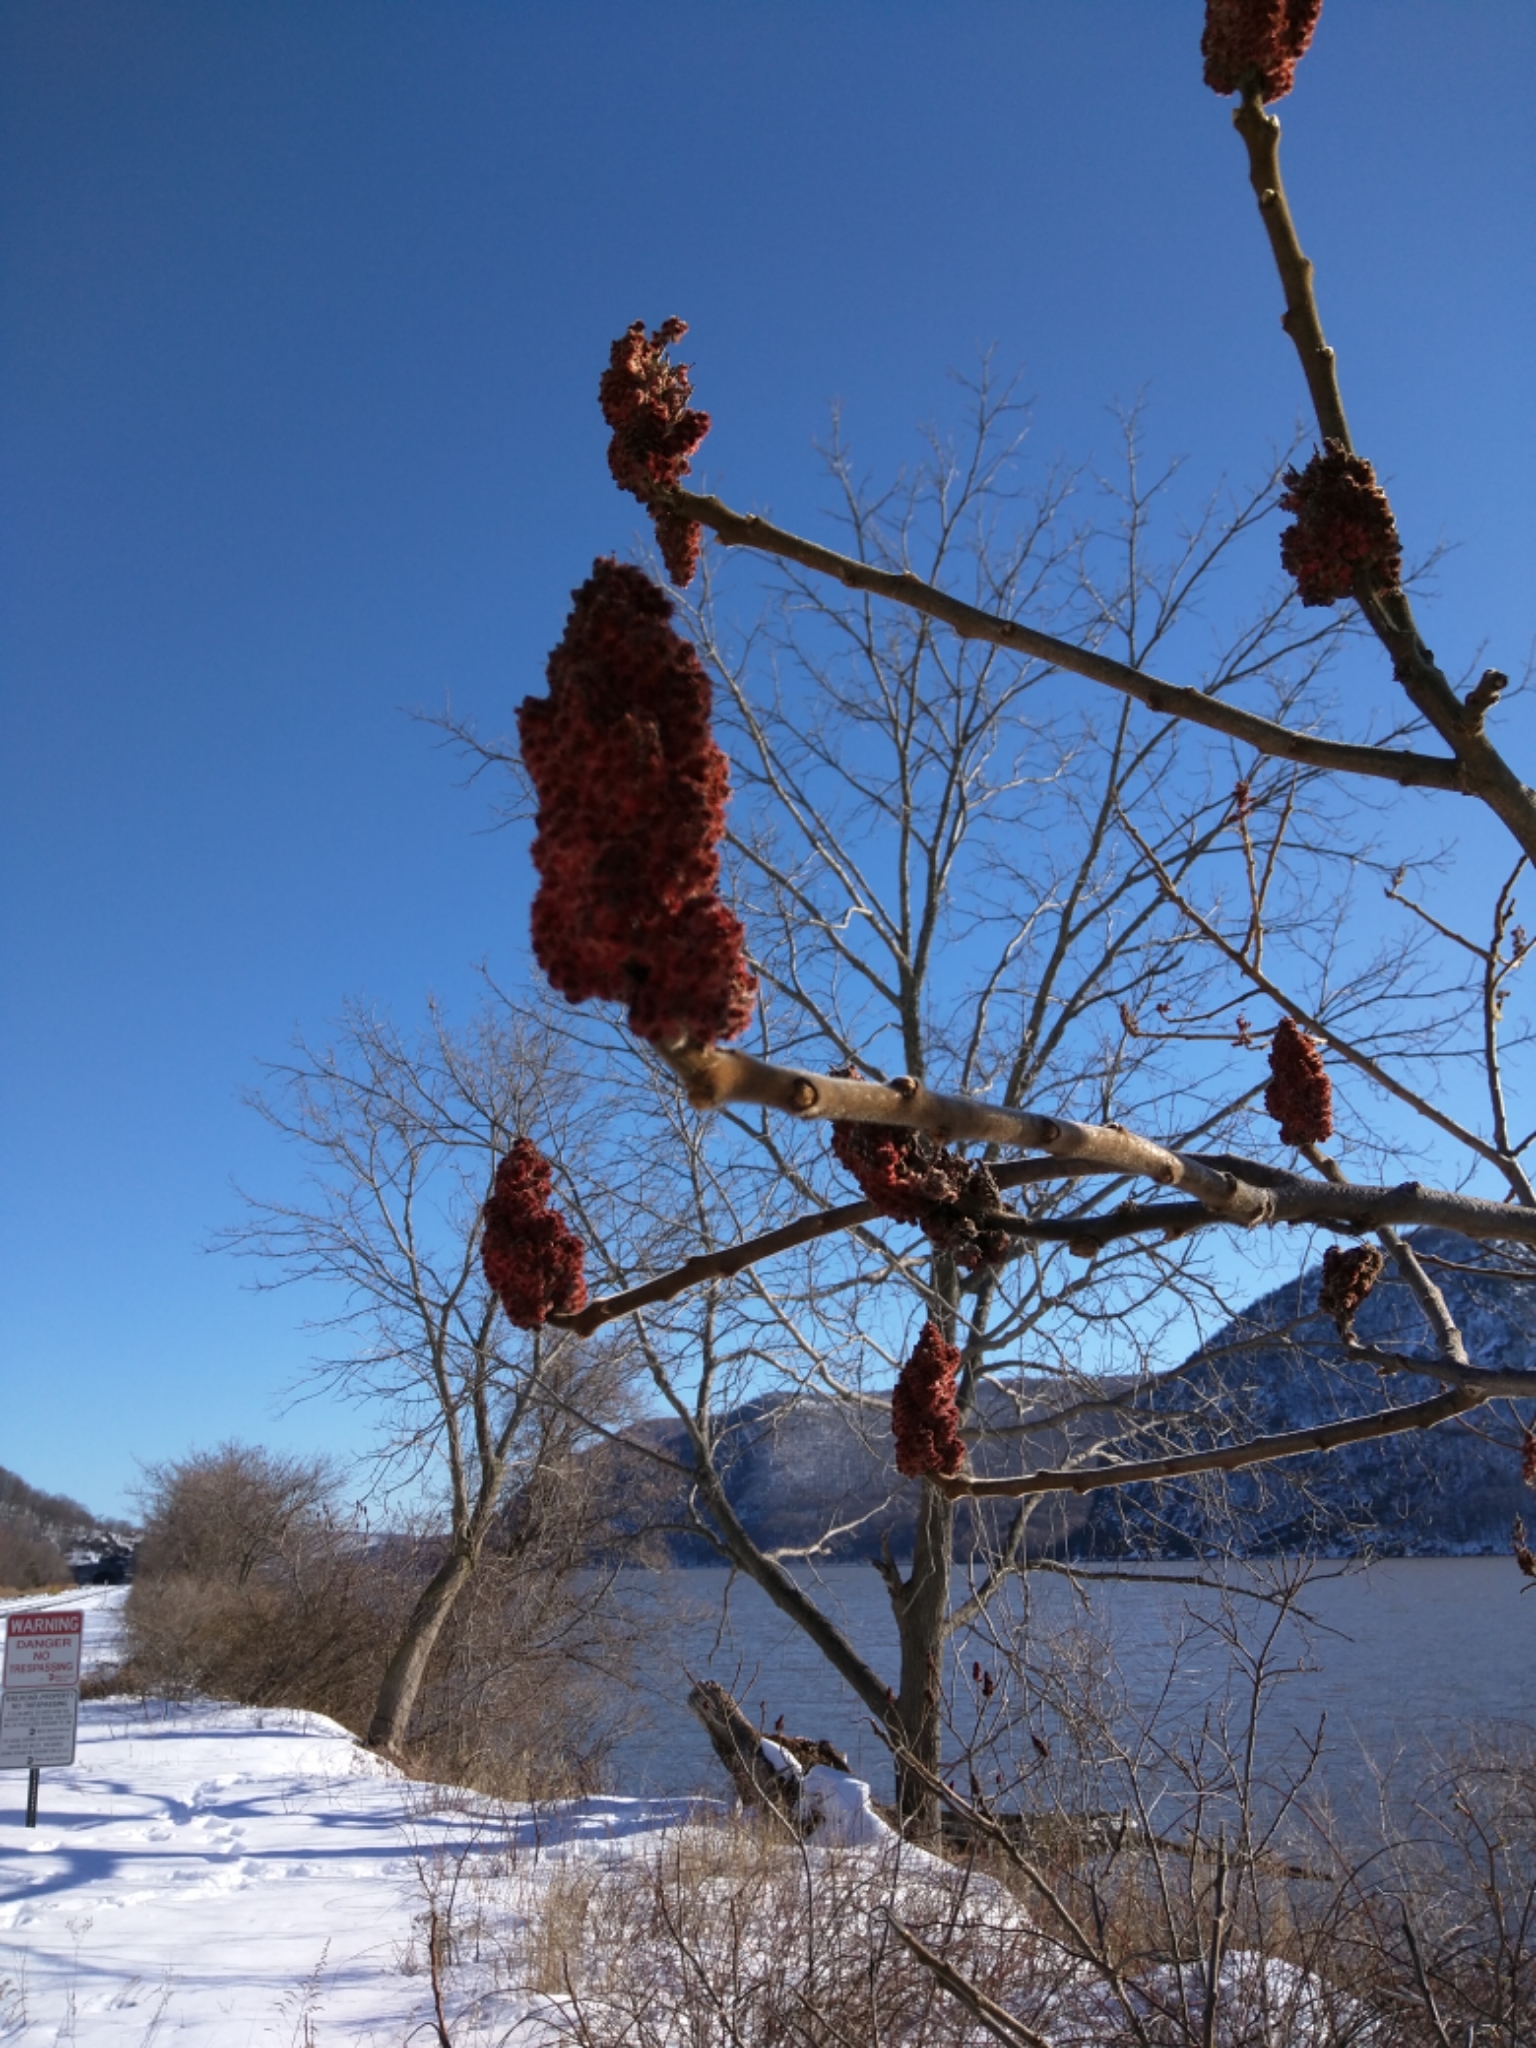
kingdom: Plantae
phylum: Tracheophyta
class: Magnoliopsida
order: Sapindales
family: Anacardiaceae
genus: Rhus
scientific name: Rhus typhina
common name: Staghorn sumac
